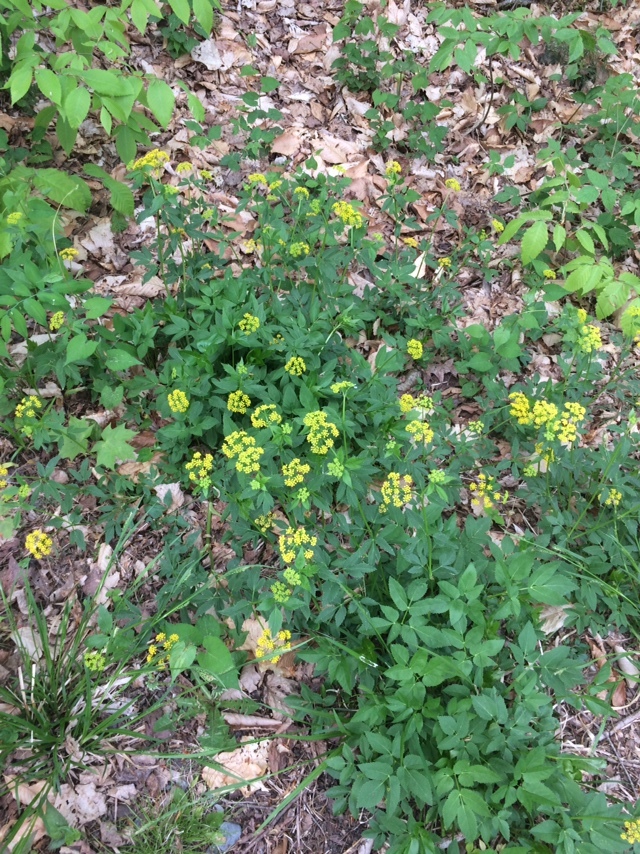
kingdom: Plantae
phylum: Tracheophyta
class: Magnoliopsida
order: Apiales
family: Apiaceae
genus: Zizia
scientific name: Zizia aurea
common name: Golden alexanders
